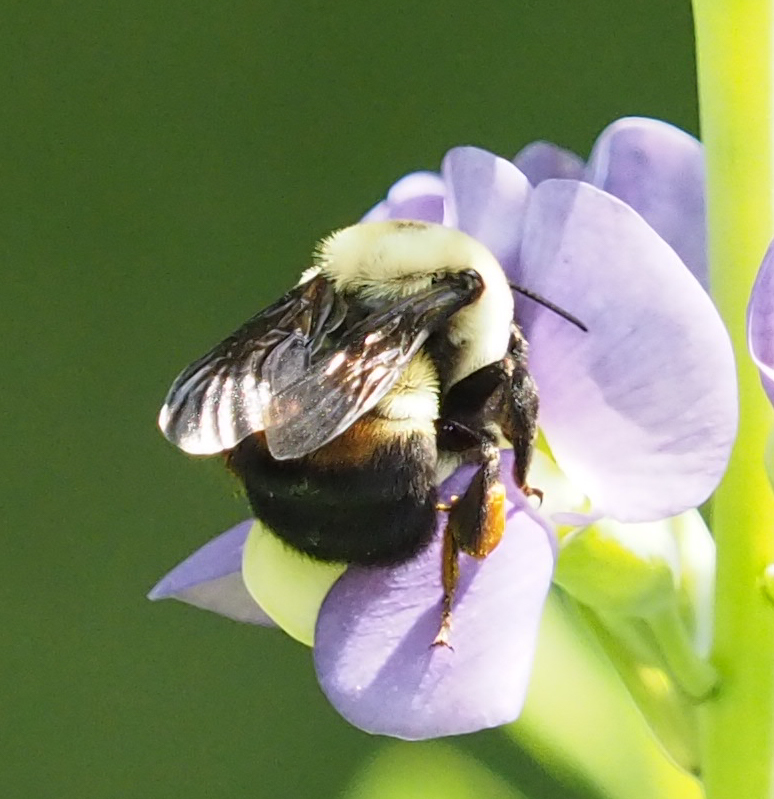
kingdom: Animalia
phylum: Arthropoda
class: Insecta
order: Hymenoptera
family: Apidae
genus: Bombus
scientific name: Bombus griseocollis
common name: Brown-belted bumble bee
